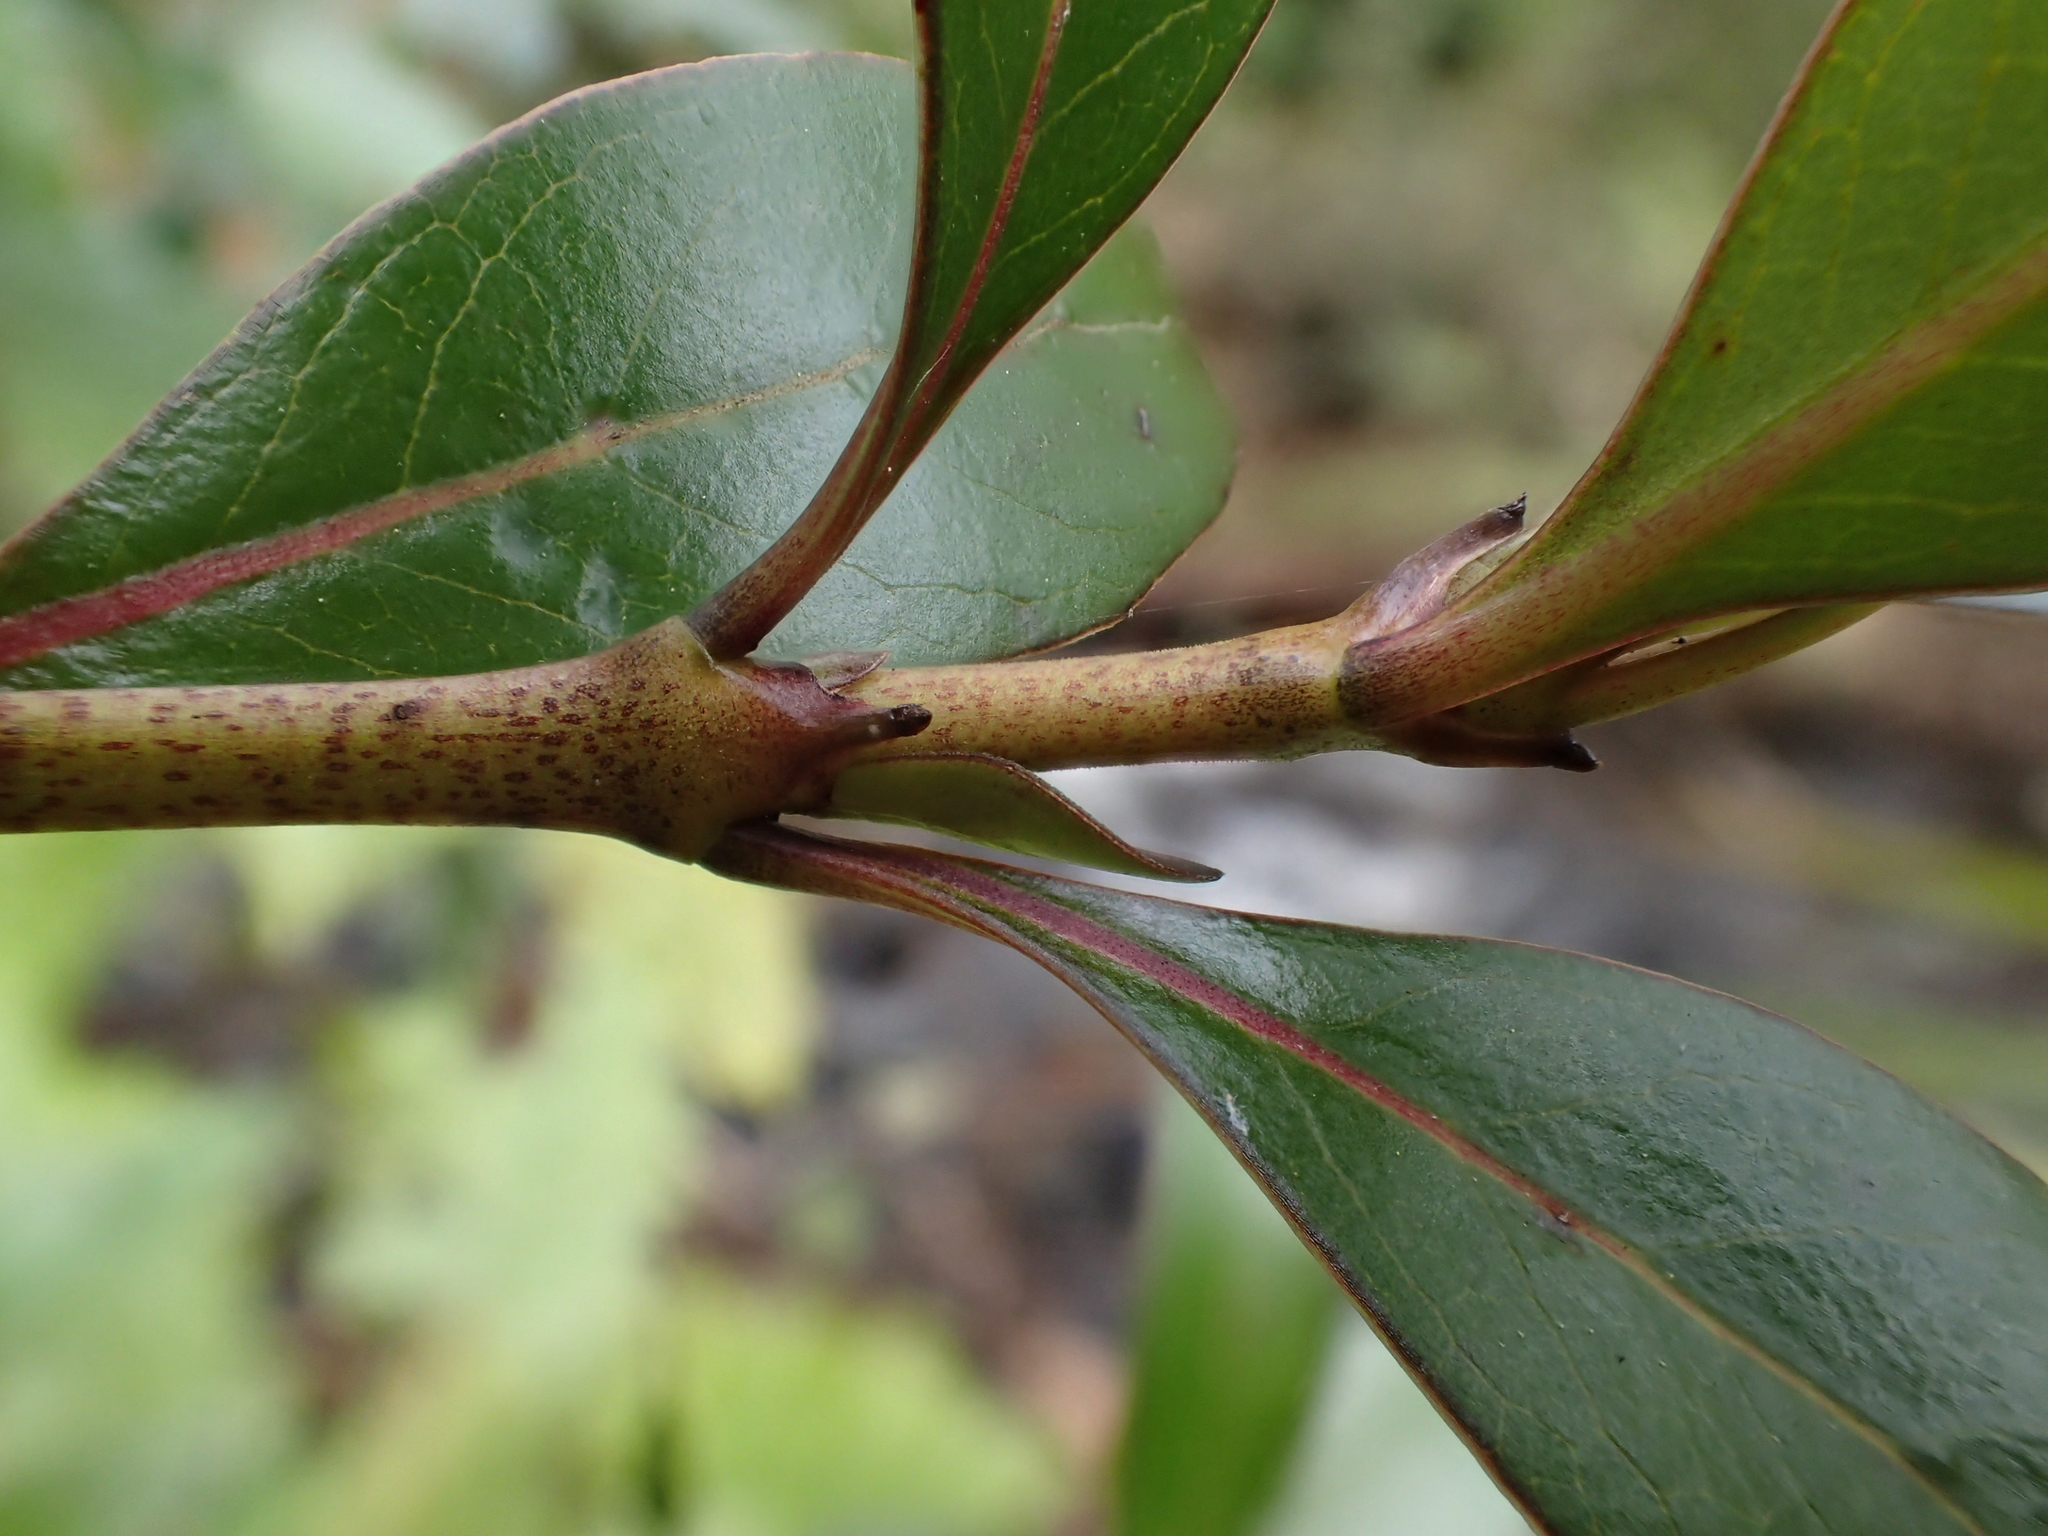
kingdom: Plantae
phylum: Tracheophyta
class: Magnoliopsida
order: Gentianales
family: Rubiaceae
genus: Coprosma
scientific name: Coprosma cunninghamii
